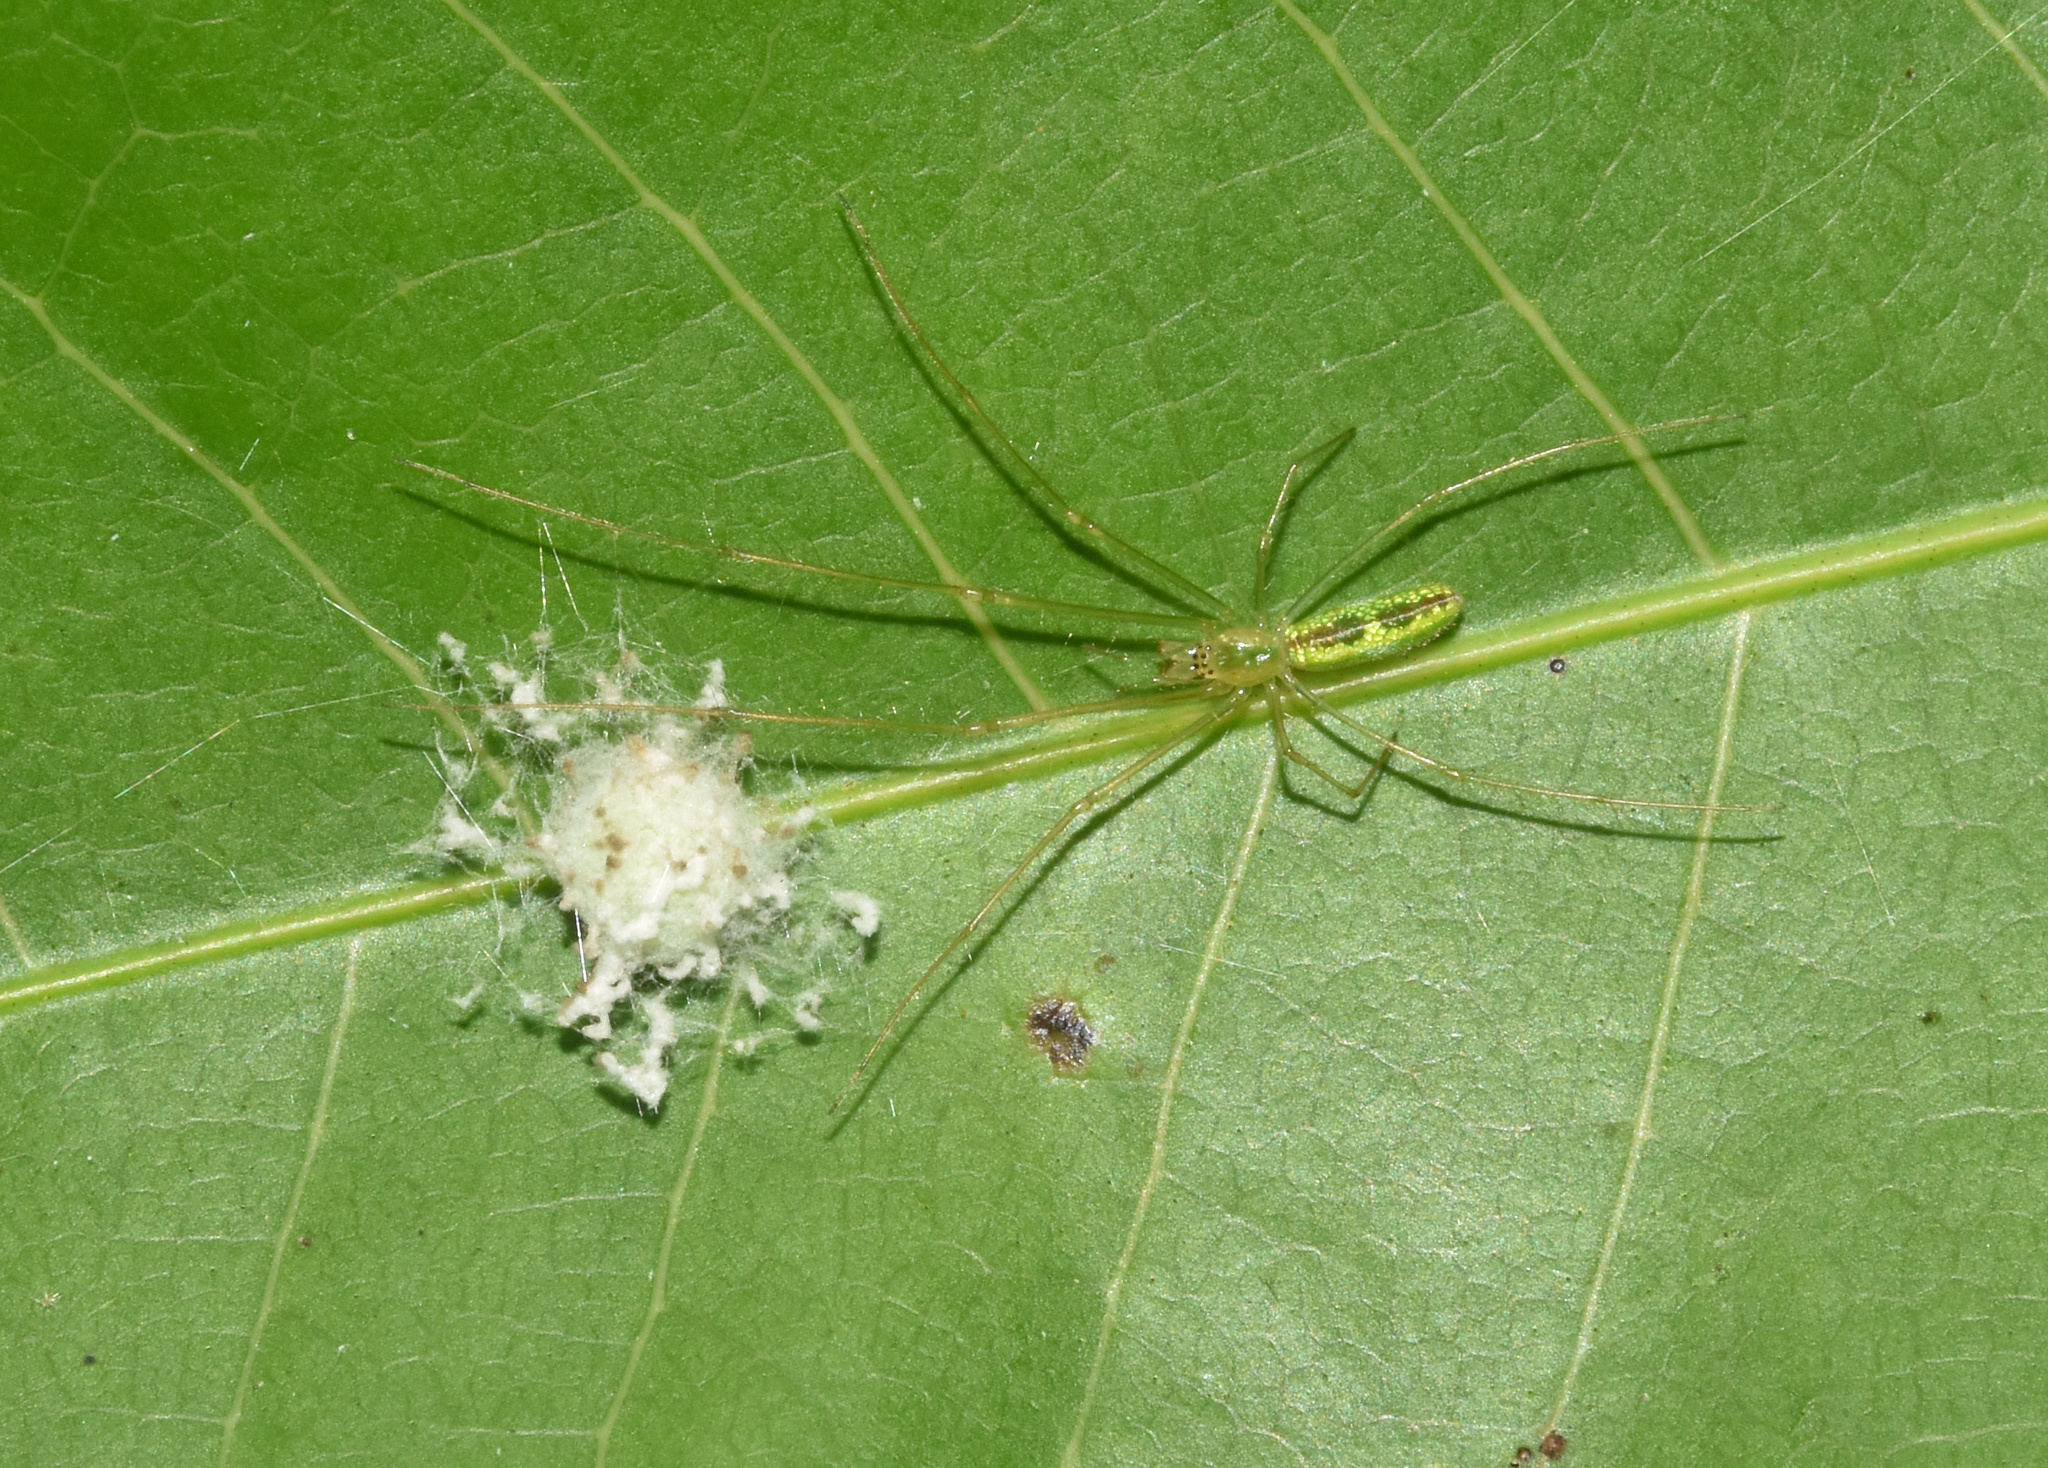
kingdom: Animalia
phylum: Arthropoda
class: Arachnida
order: Araneae
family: Tetragnathidae
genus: Tetragnatha
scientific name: Tetragnatha subsquamata
